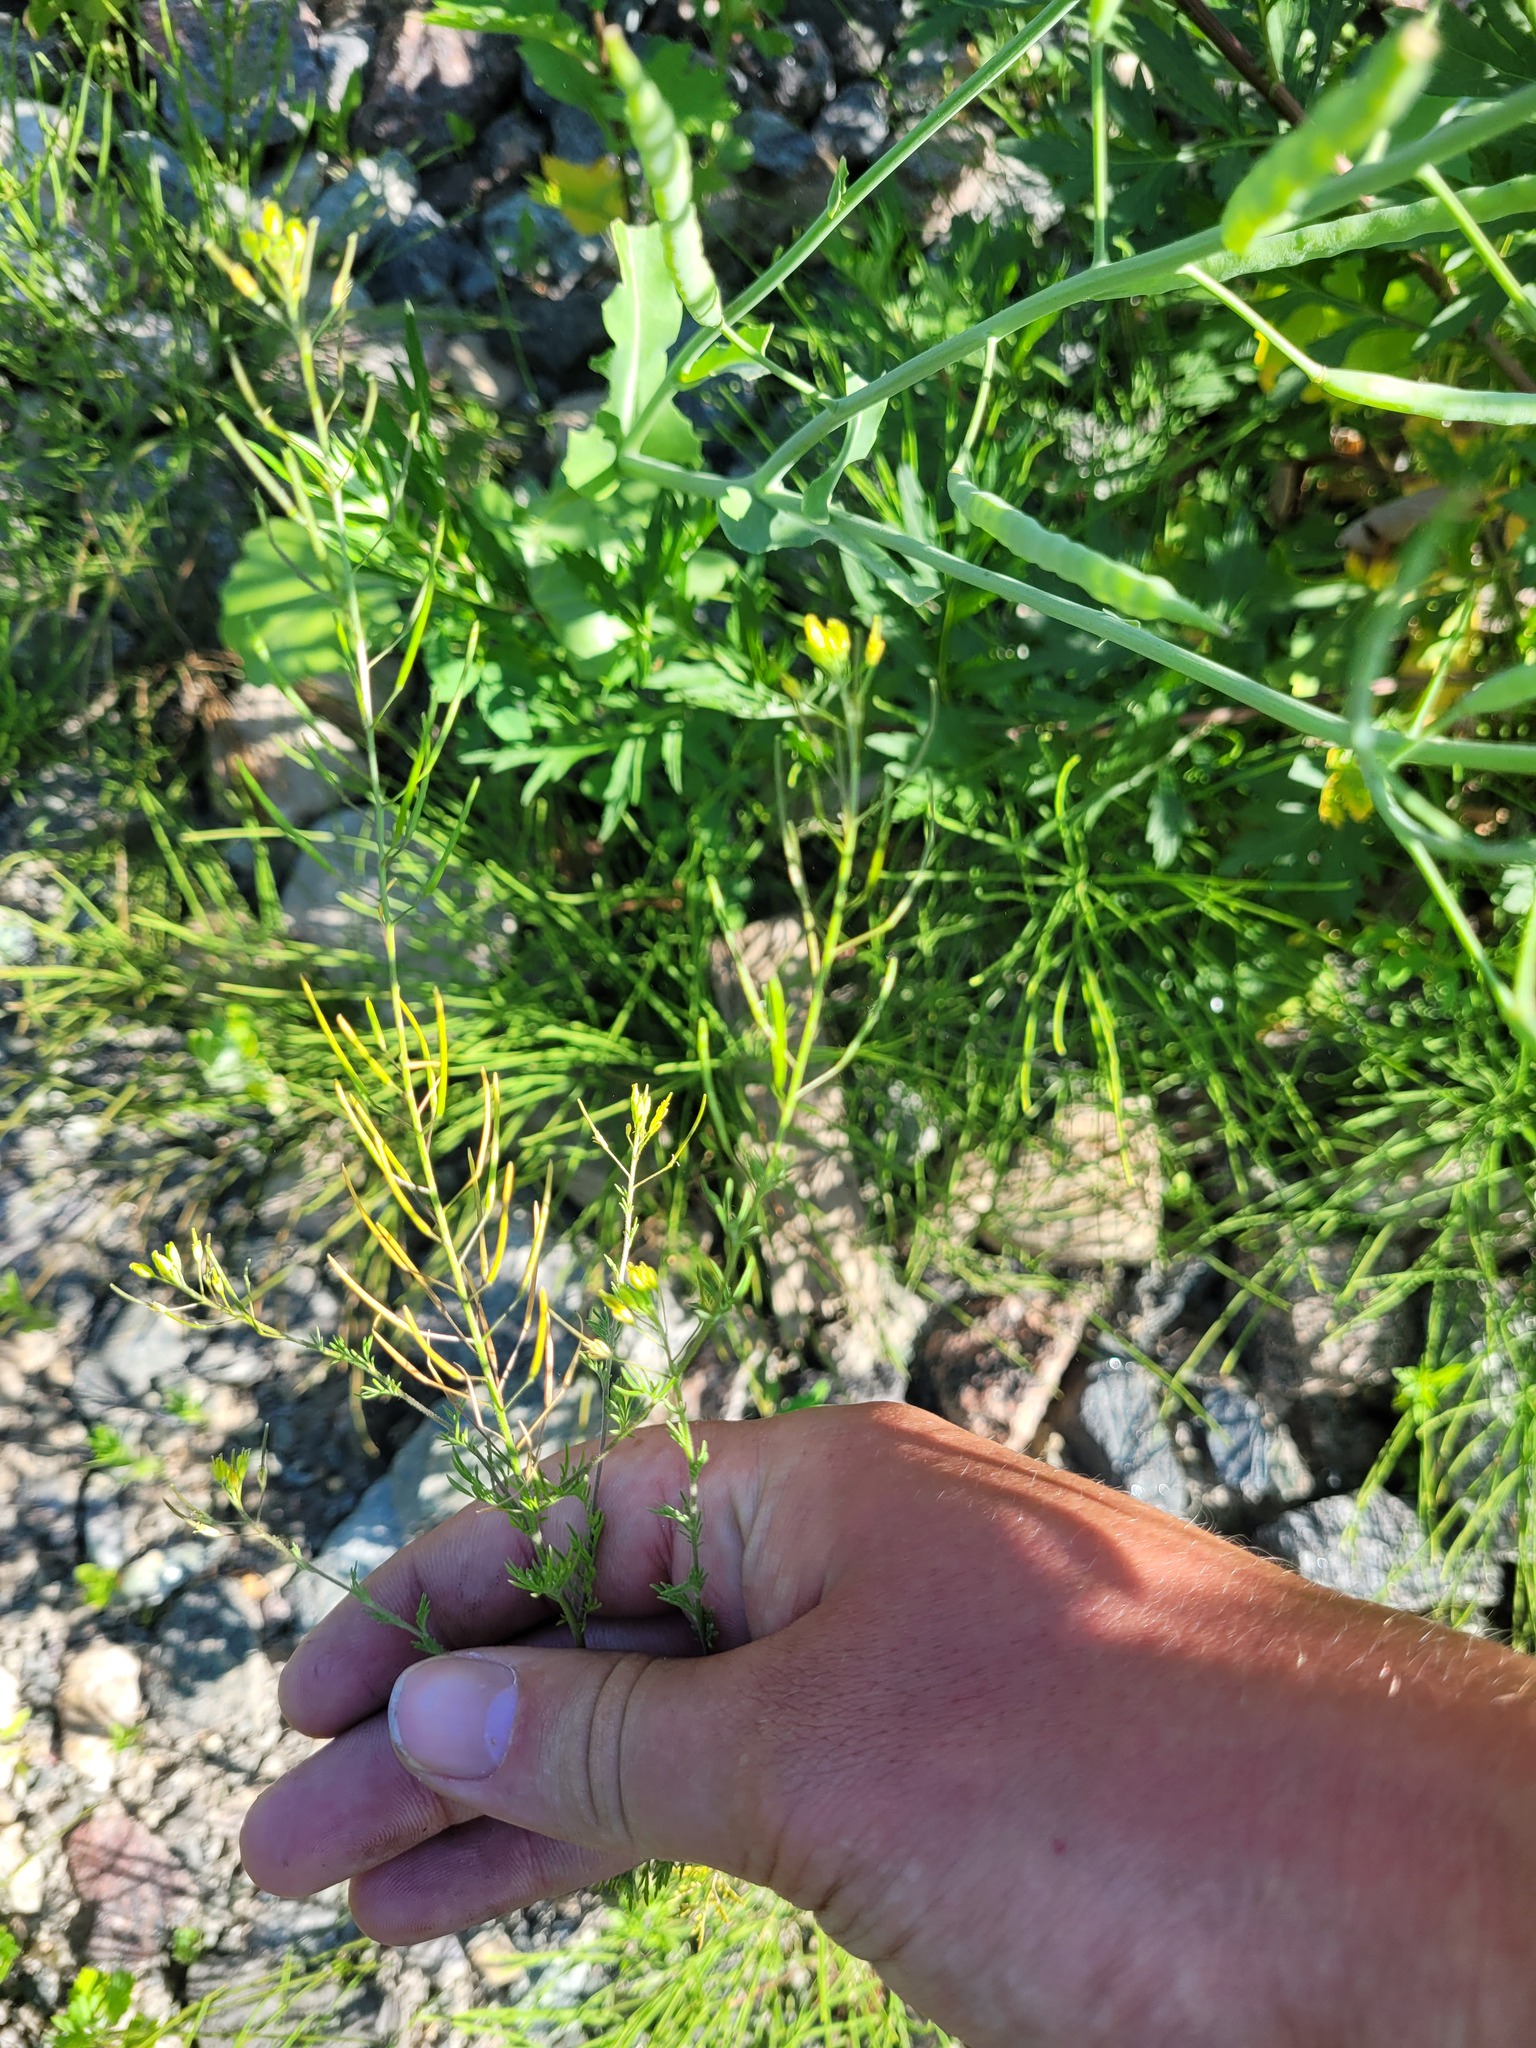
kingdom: Plantae
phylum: Tracheophyta
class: Magnoliopsida
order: Brassicales
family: Brassicaceae
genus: Descurainia
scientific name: Descurainia sophia
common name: Flixweed
